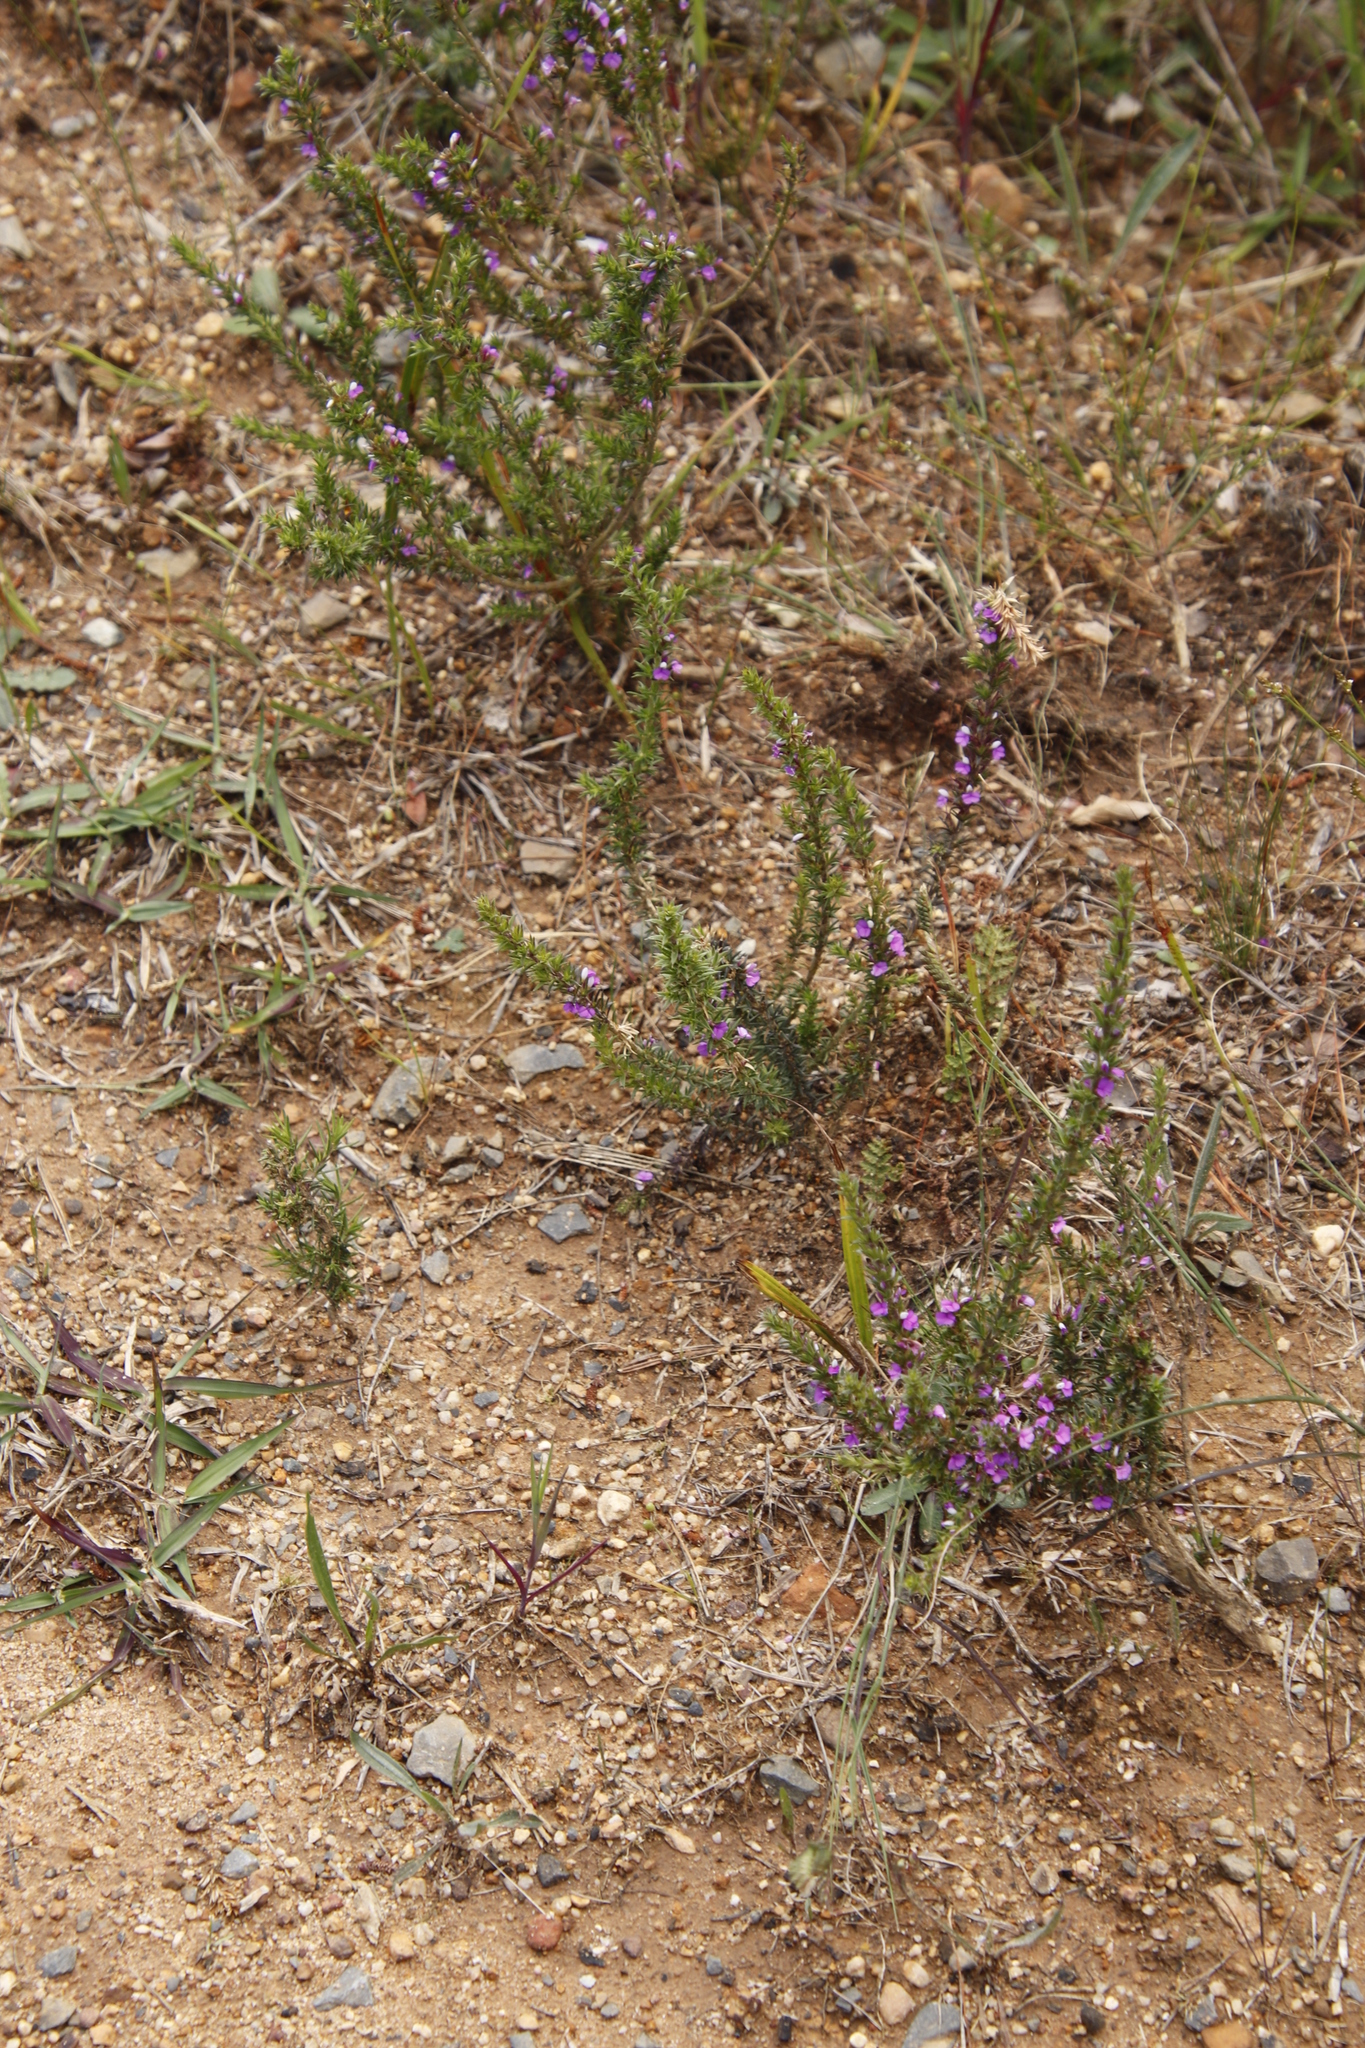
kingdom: Plantae
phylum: Tracheophyta
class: Magnoliopsida
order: Fabales
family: Polygalaceae
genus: Muraltia
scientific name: Muraltia heisteria
